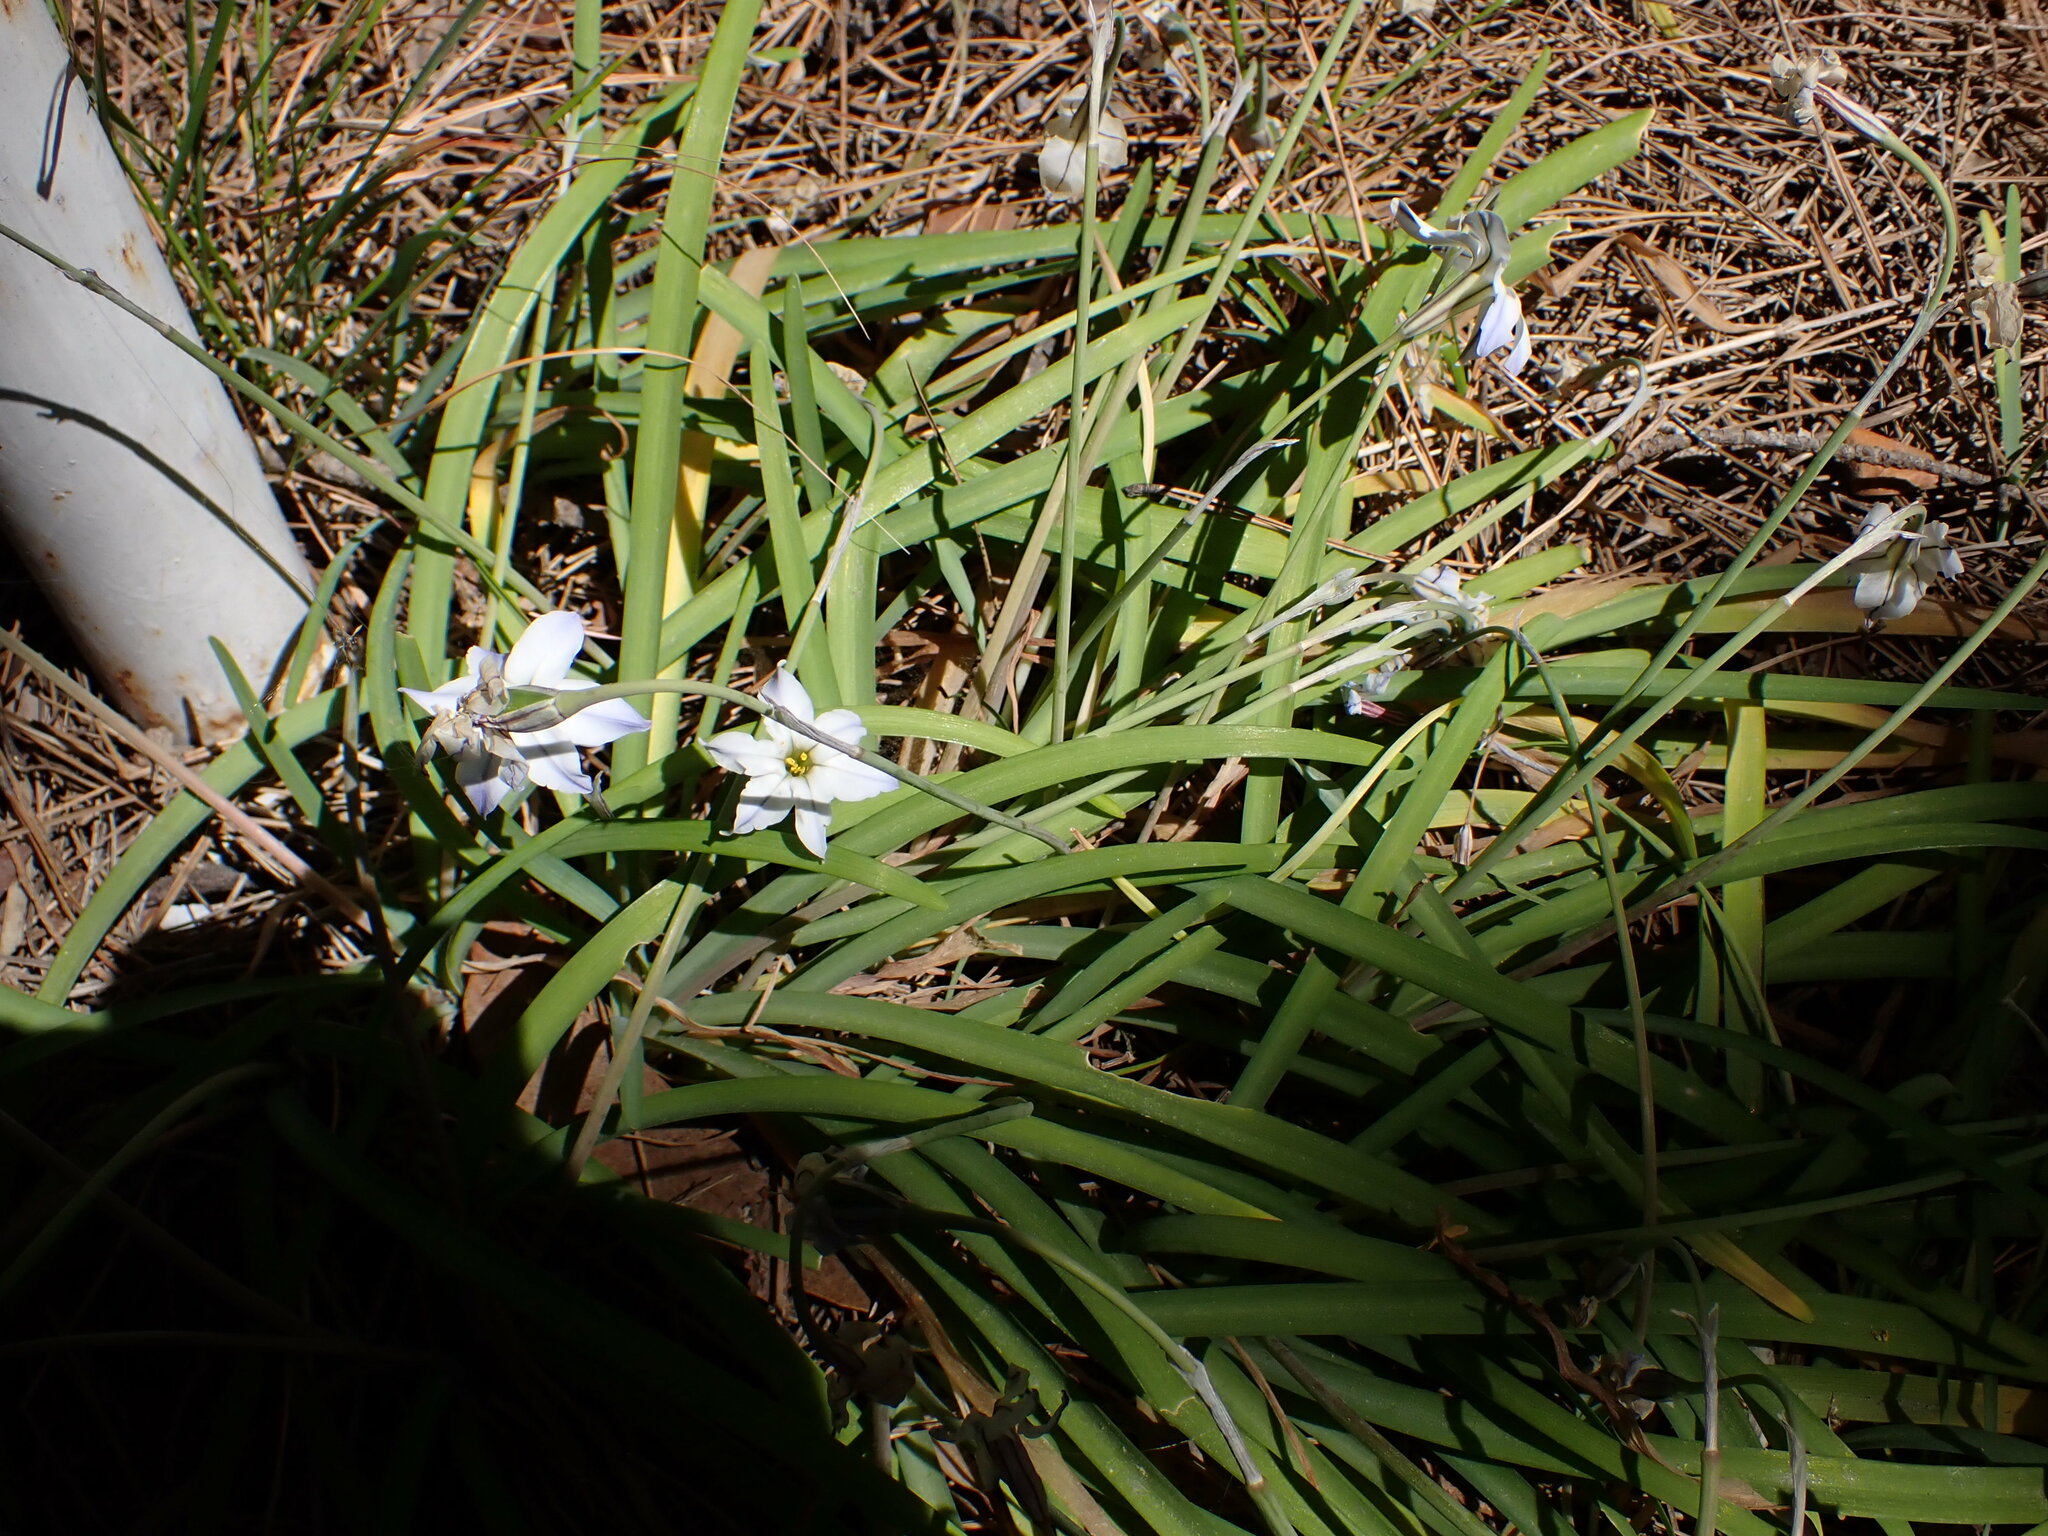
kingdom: Plantae
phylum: Tracheophyta
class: Liliopsida
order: Asparagales
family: Amaryllidaceae
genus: Ipheion
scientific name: Ipheion uniflorum
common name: Spring starflower
